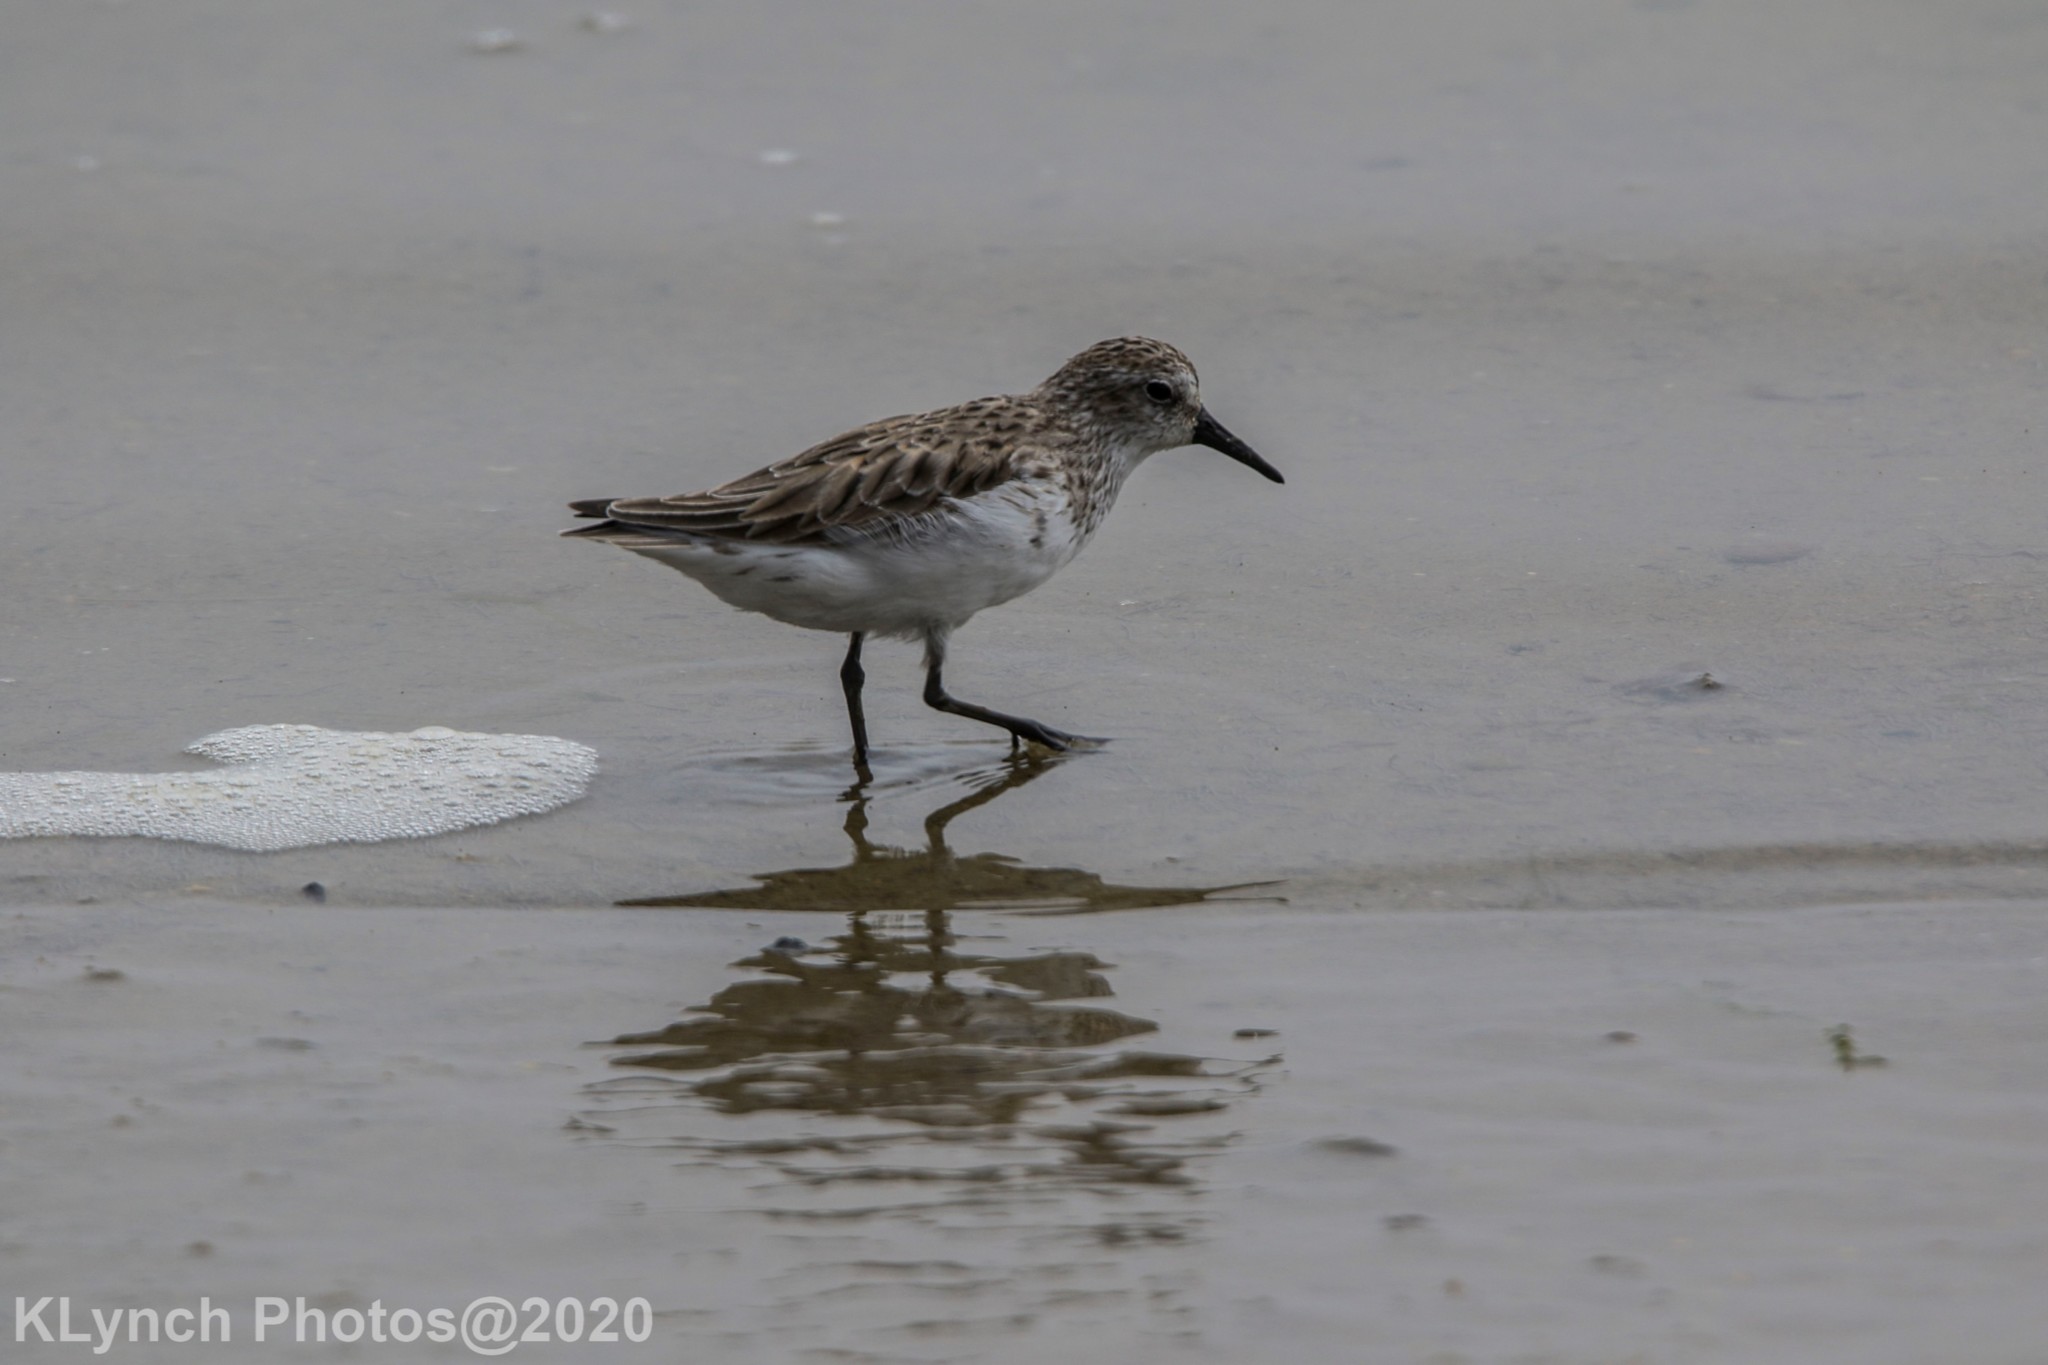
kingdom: Animalia
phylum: Chordata
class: Aves
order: Charadriiformes
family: Scolopacidae
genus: Calidris
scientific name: Calidris pusilla
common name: Semipalmated sandpiper
